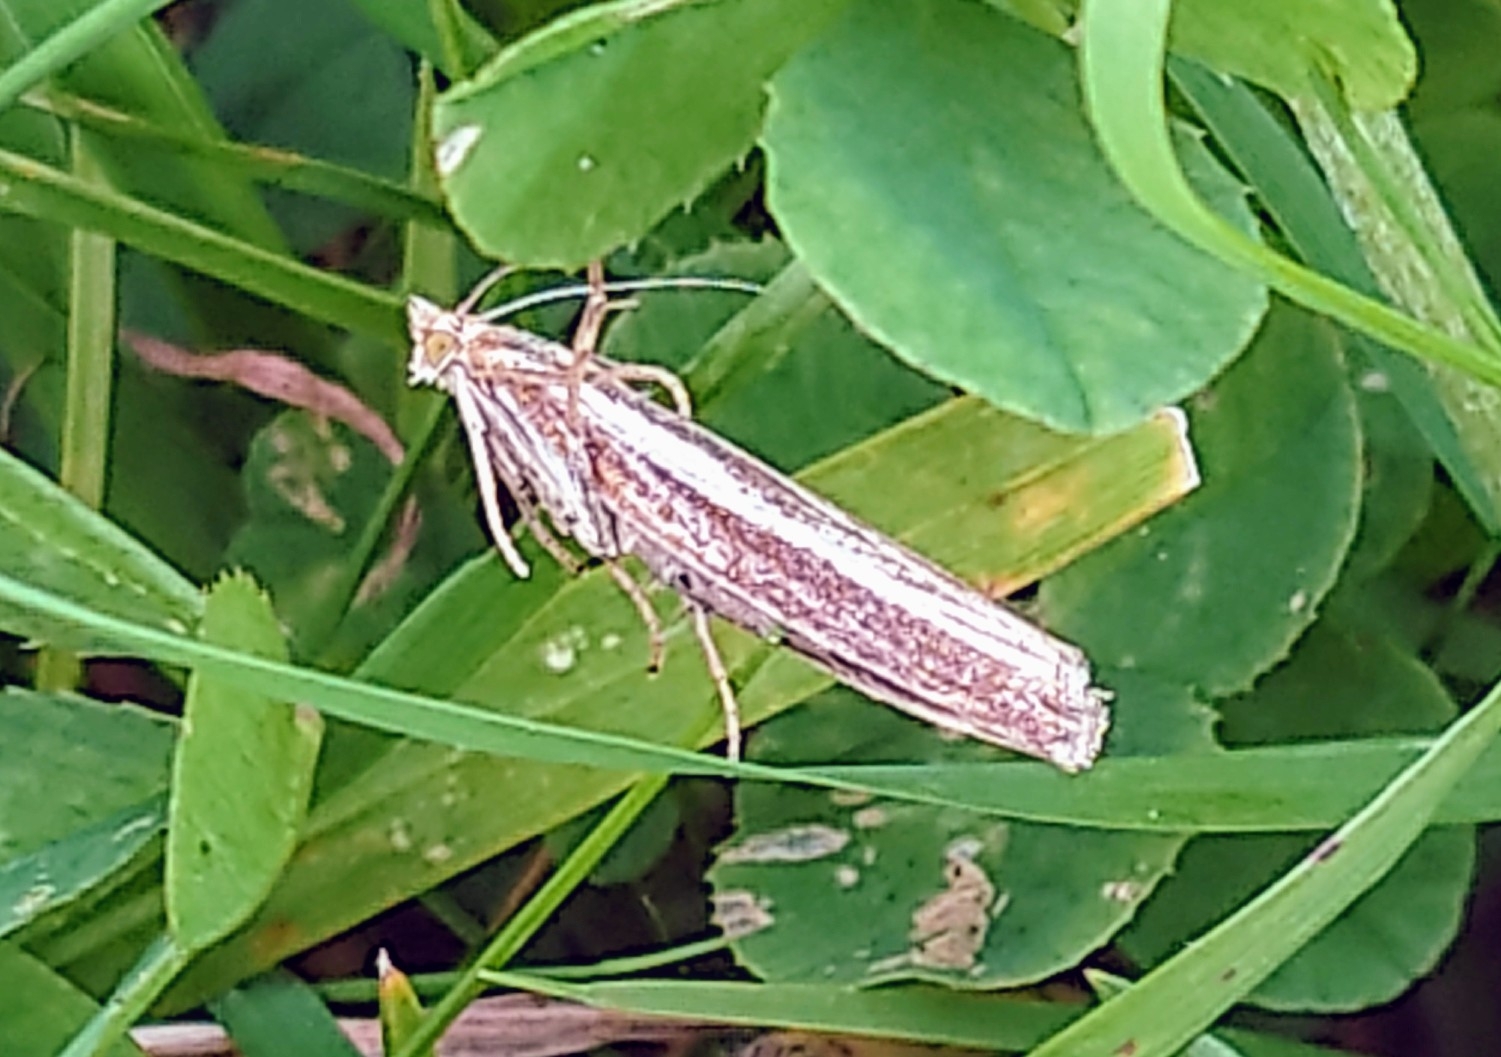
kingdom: Animalia
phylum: Arthropoda
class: Insecta
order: Lepidoptera
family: Crambidae
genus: Agriphila
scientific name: Agriphila tristellus
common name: Common grass-veneer
